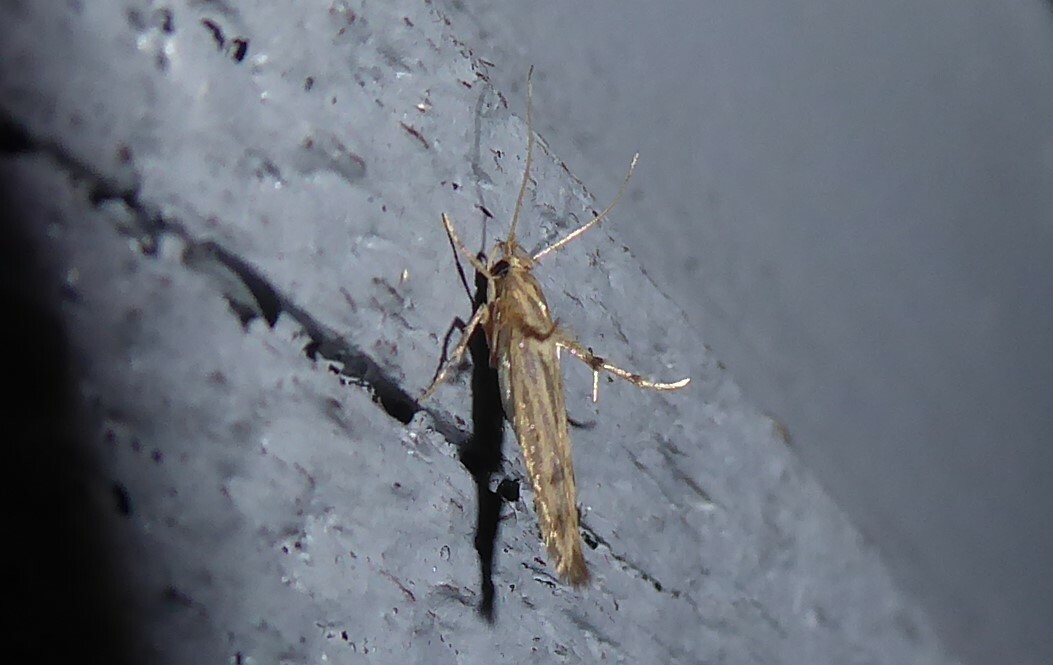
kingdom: Animalia
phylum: Arthropoda
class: Insecta
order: Lepidoptera
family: Stathmopodidae
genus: Stathmopoda
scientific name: Stathmopoda plumbiflua
